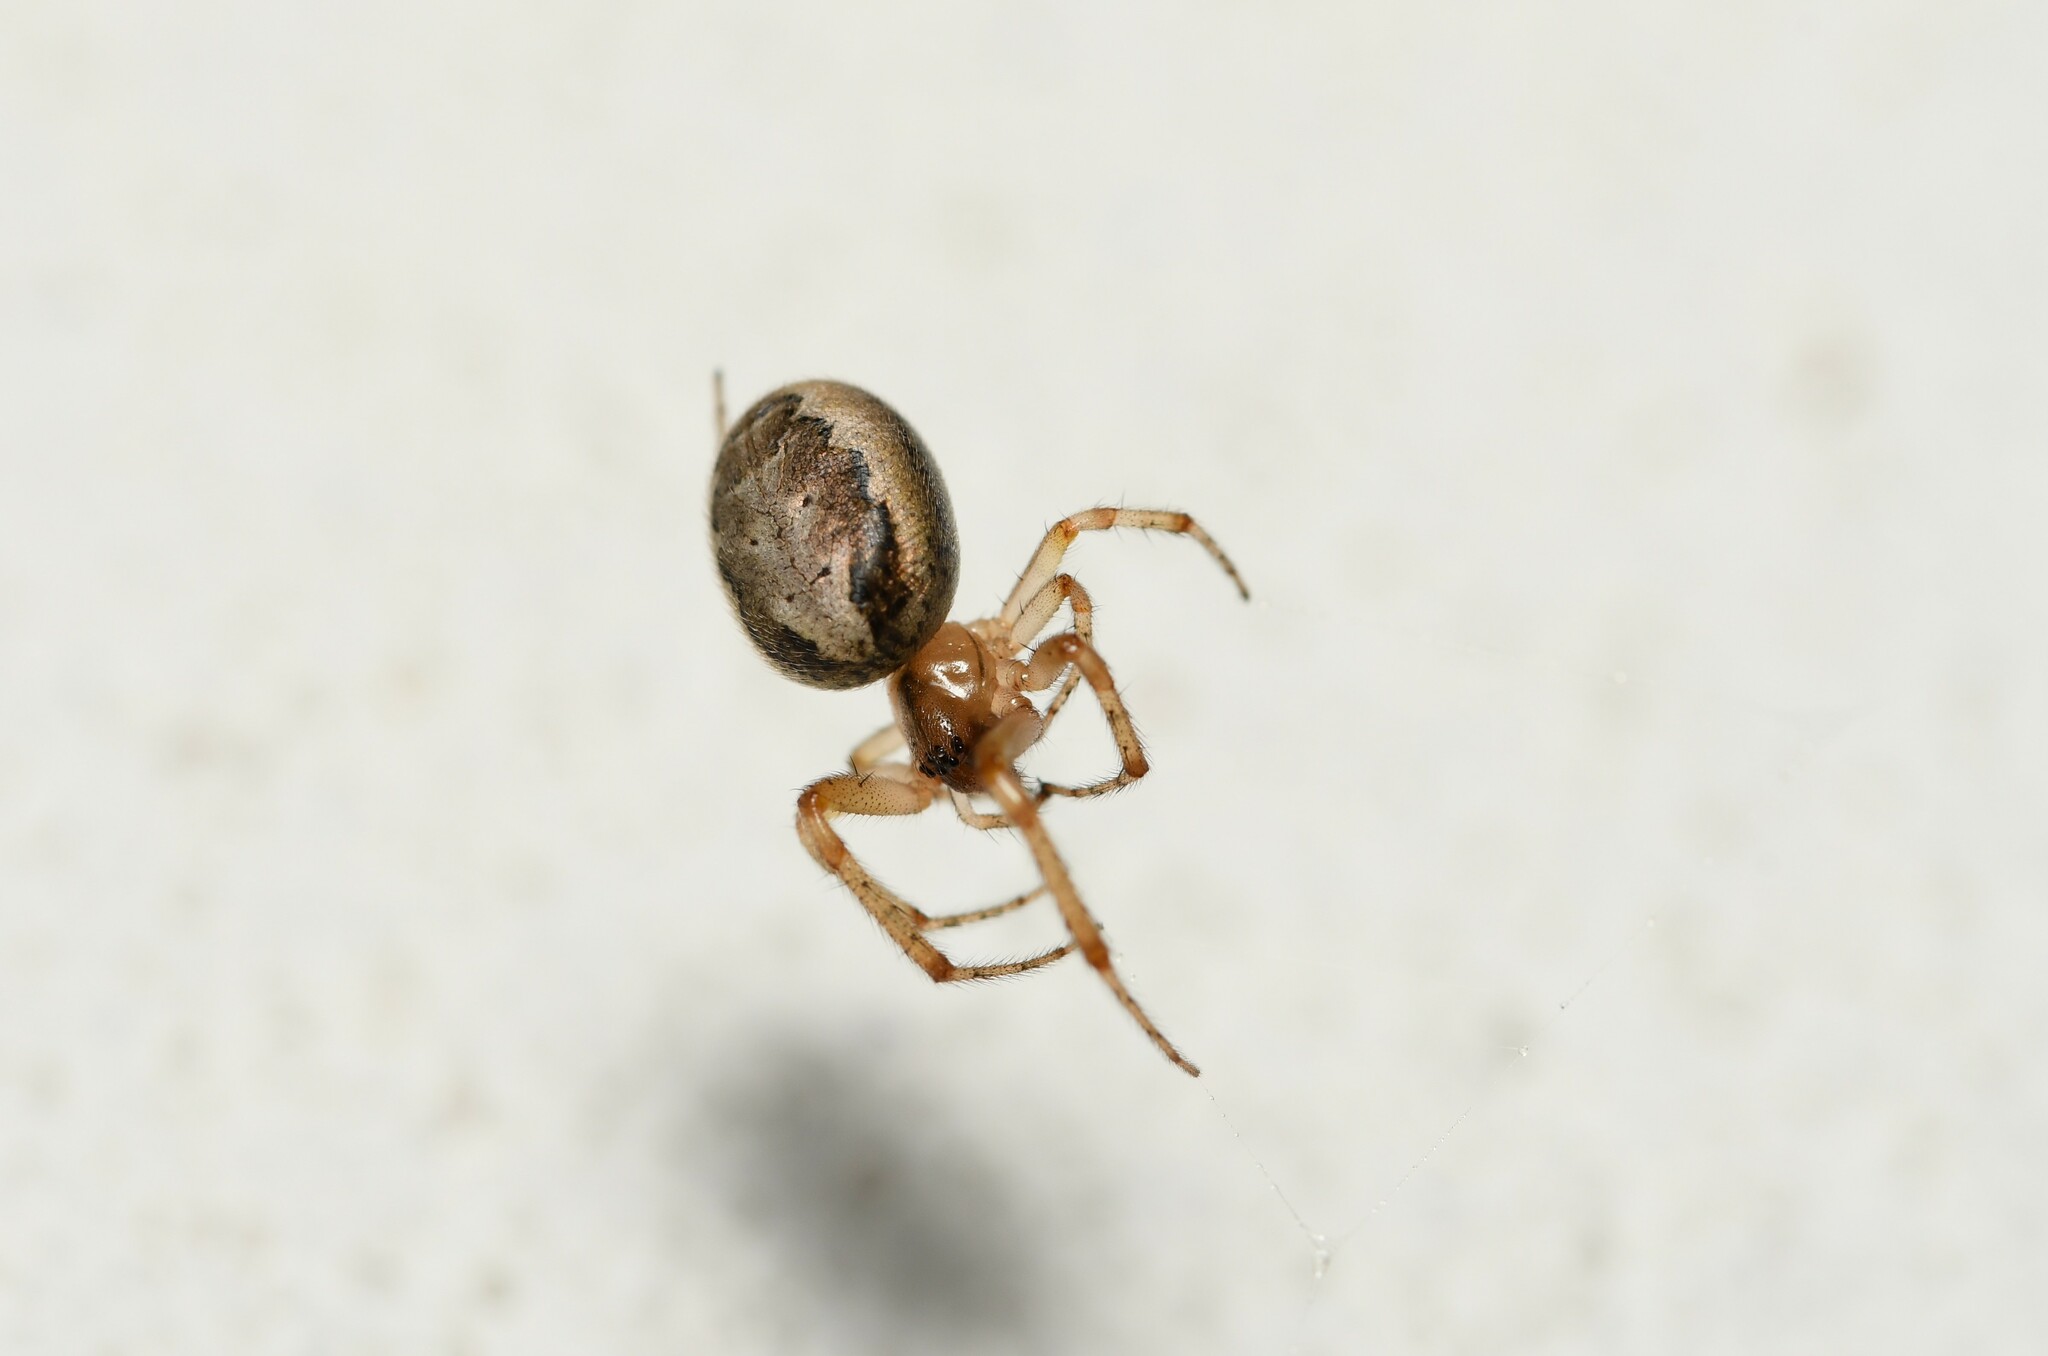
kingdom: Animalia
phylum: Arthropoda
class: Arachnida
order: Araneae
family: Araneidae
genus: Zygiella
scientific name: Zygiella x-notata
